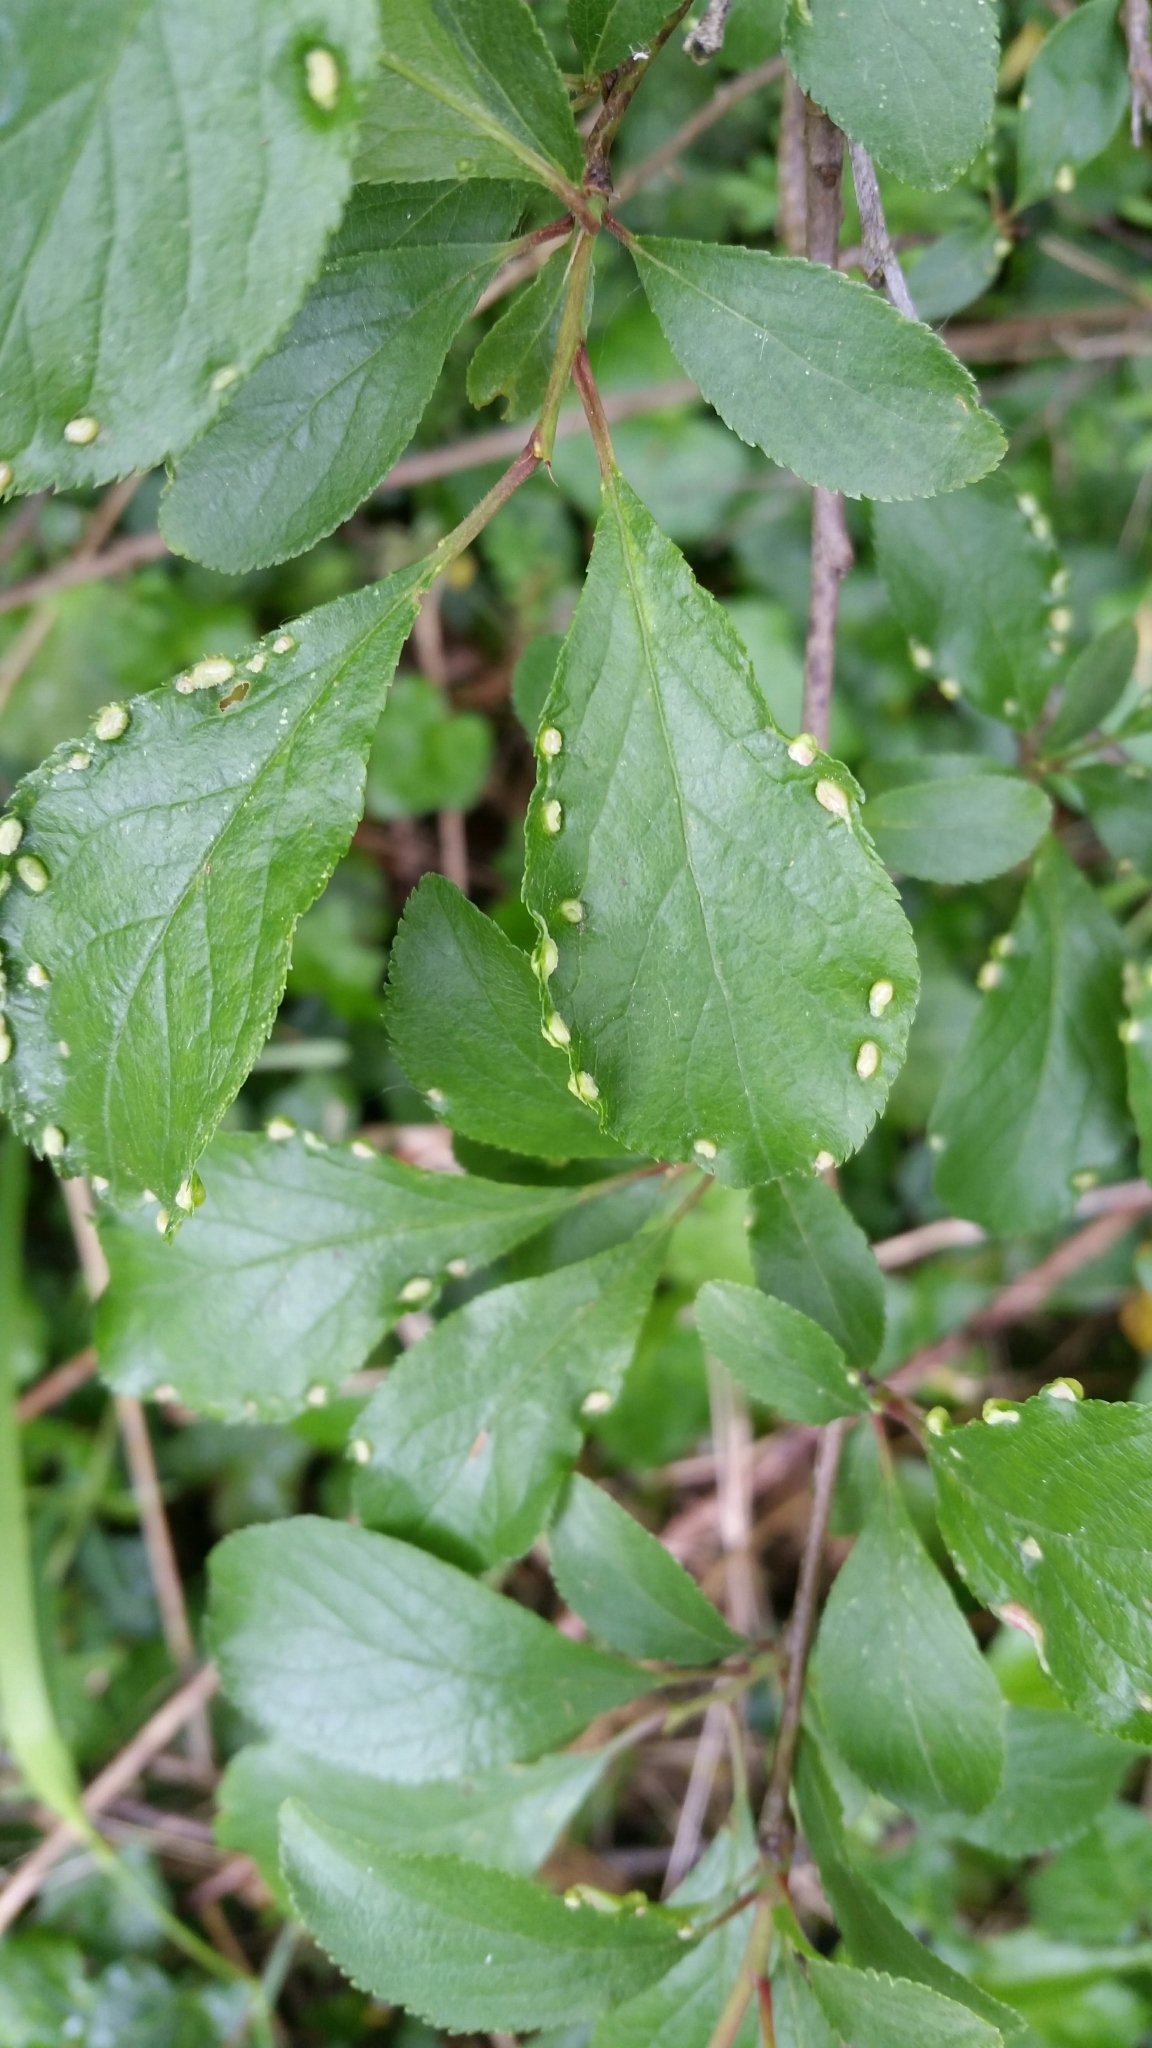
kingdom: Animalia
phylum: Arthropoda
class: Arachnida
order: Trombidiformes
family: Eriophyidae
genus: Eriophyes
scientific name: Eriophyes similis
